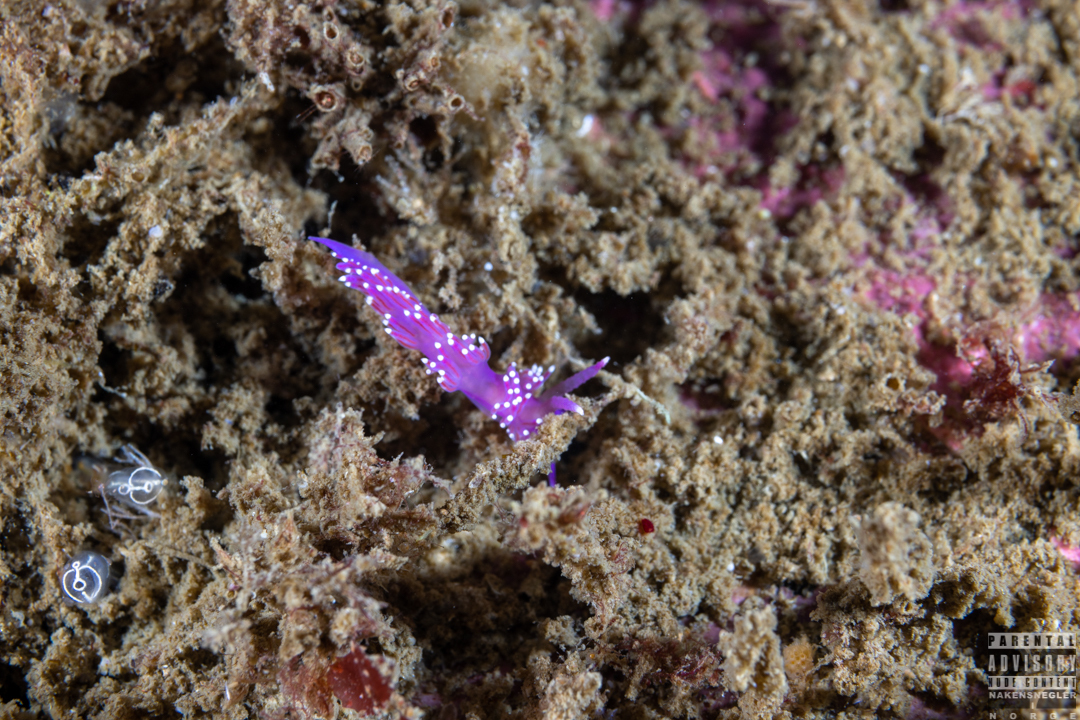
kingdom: Animalia
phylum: Mollusca
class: Gastropoda
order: Nudibranchia
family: Flabellinidae
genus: Edmundsella
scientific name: Edmundsella pedata
